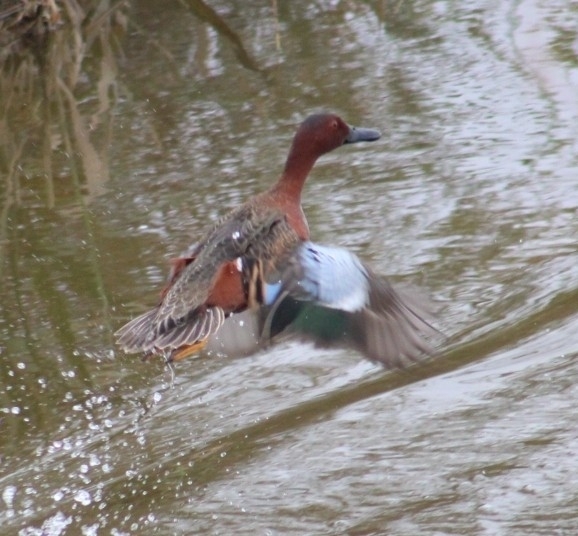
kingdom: Animalia
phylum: Chordata
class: Aves
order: Anseriformes
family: Anatidae
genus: Spatula
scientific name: Spatula cyanoptera
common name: Cinnamon teal
